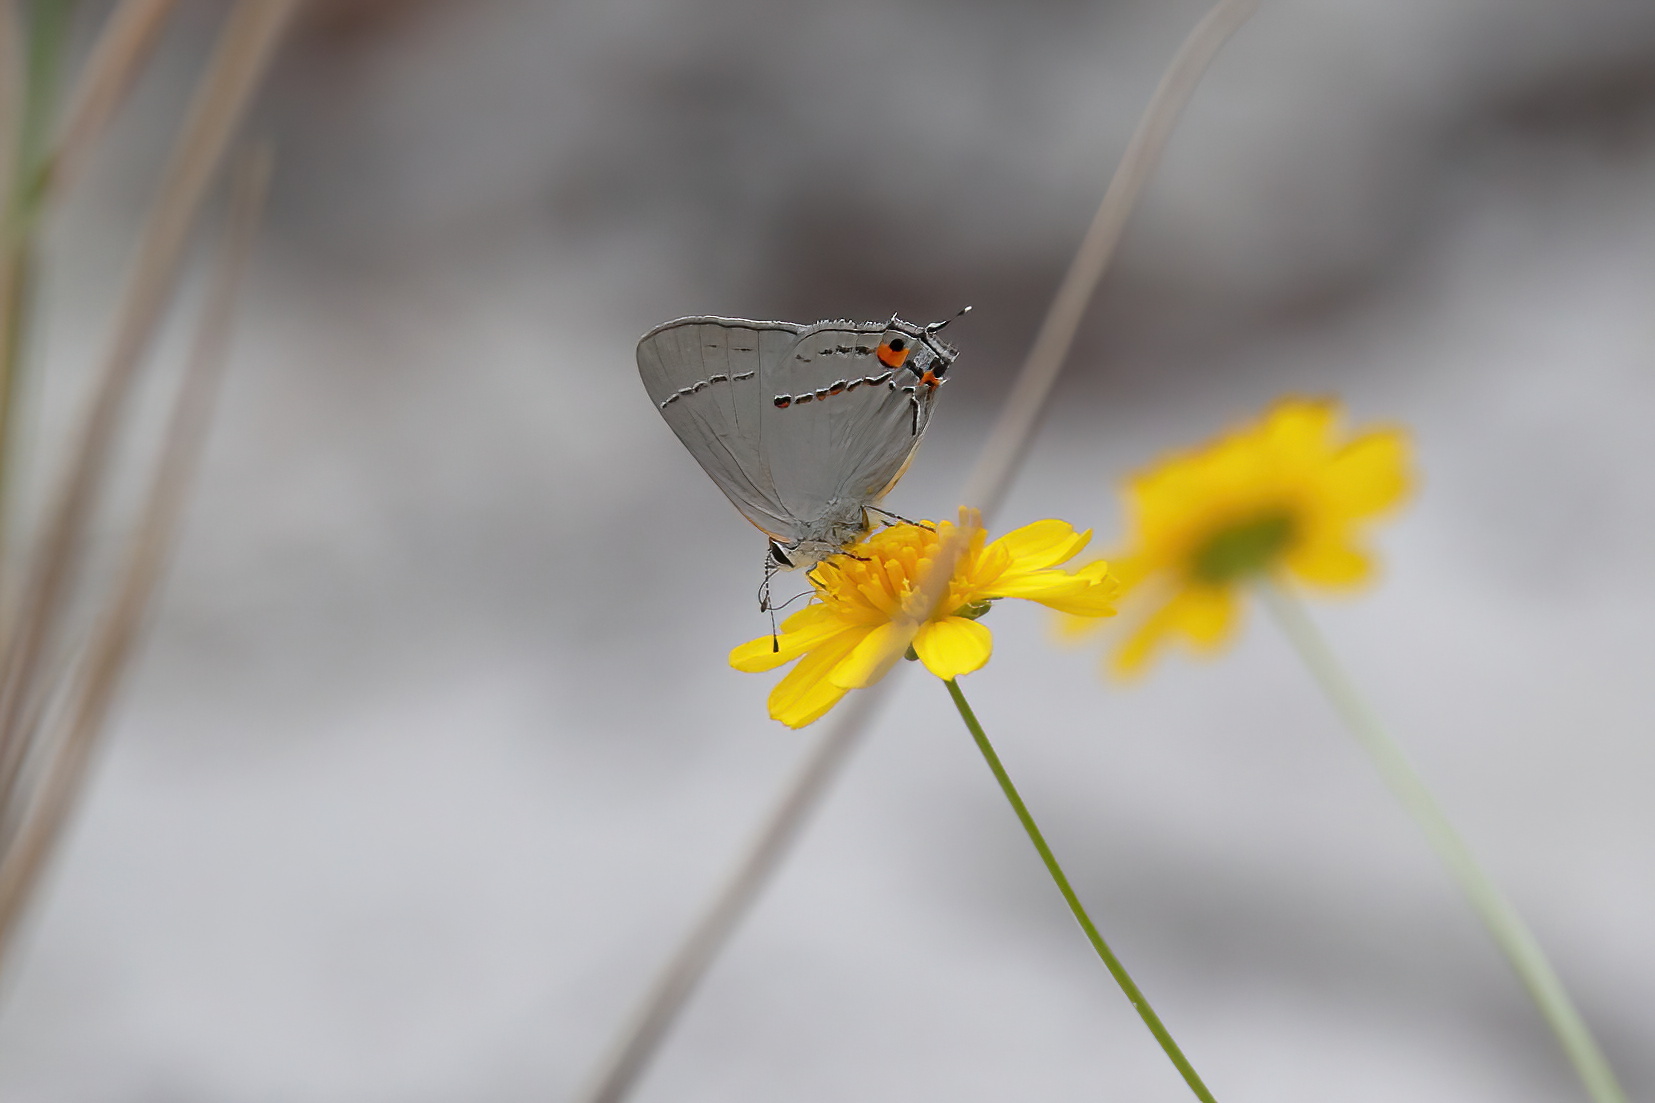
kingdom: Animalia
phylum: Arthropoda
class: Insecta
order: Lepidoptera
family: Lycaenidae
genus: Strymon
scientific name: Strymon melinus
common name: Gray hairstreak
